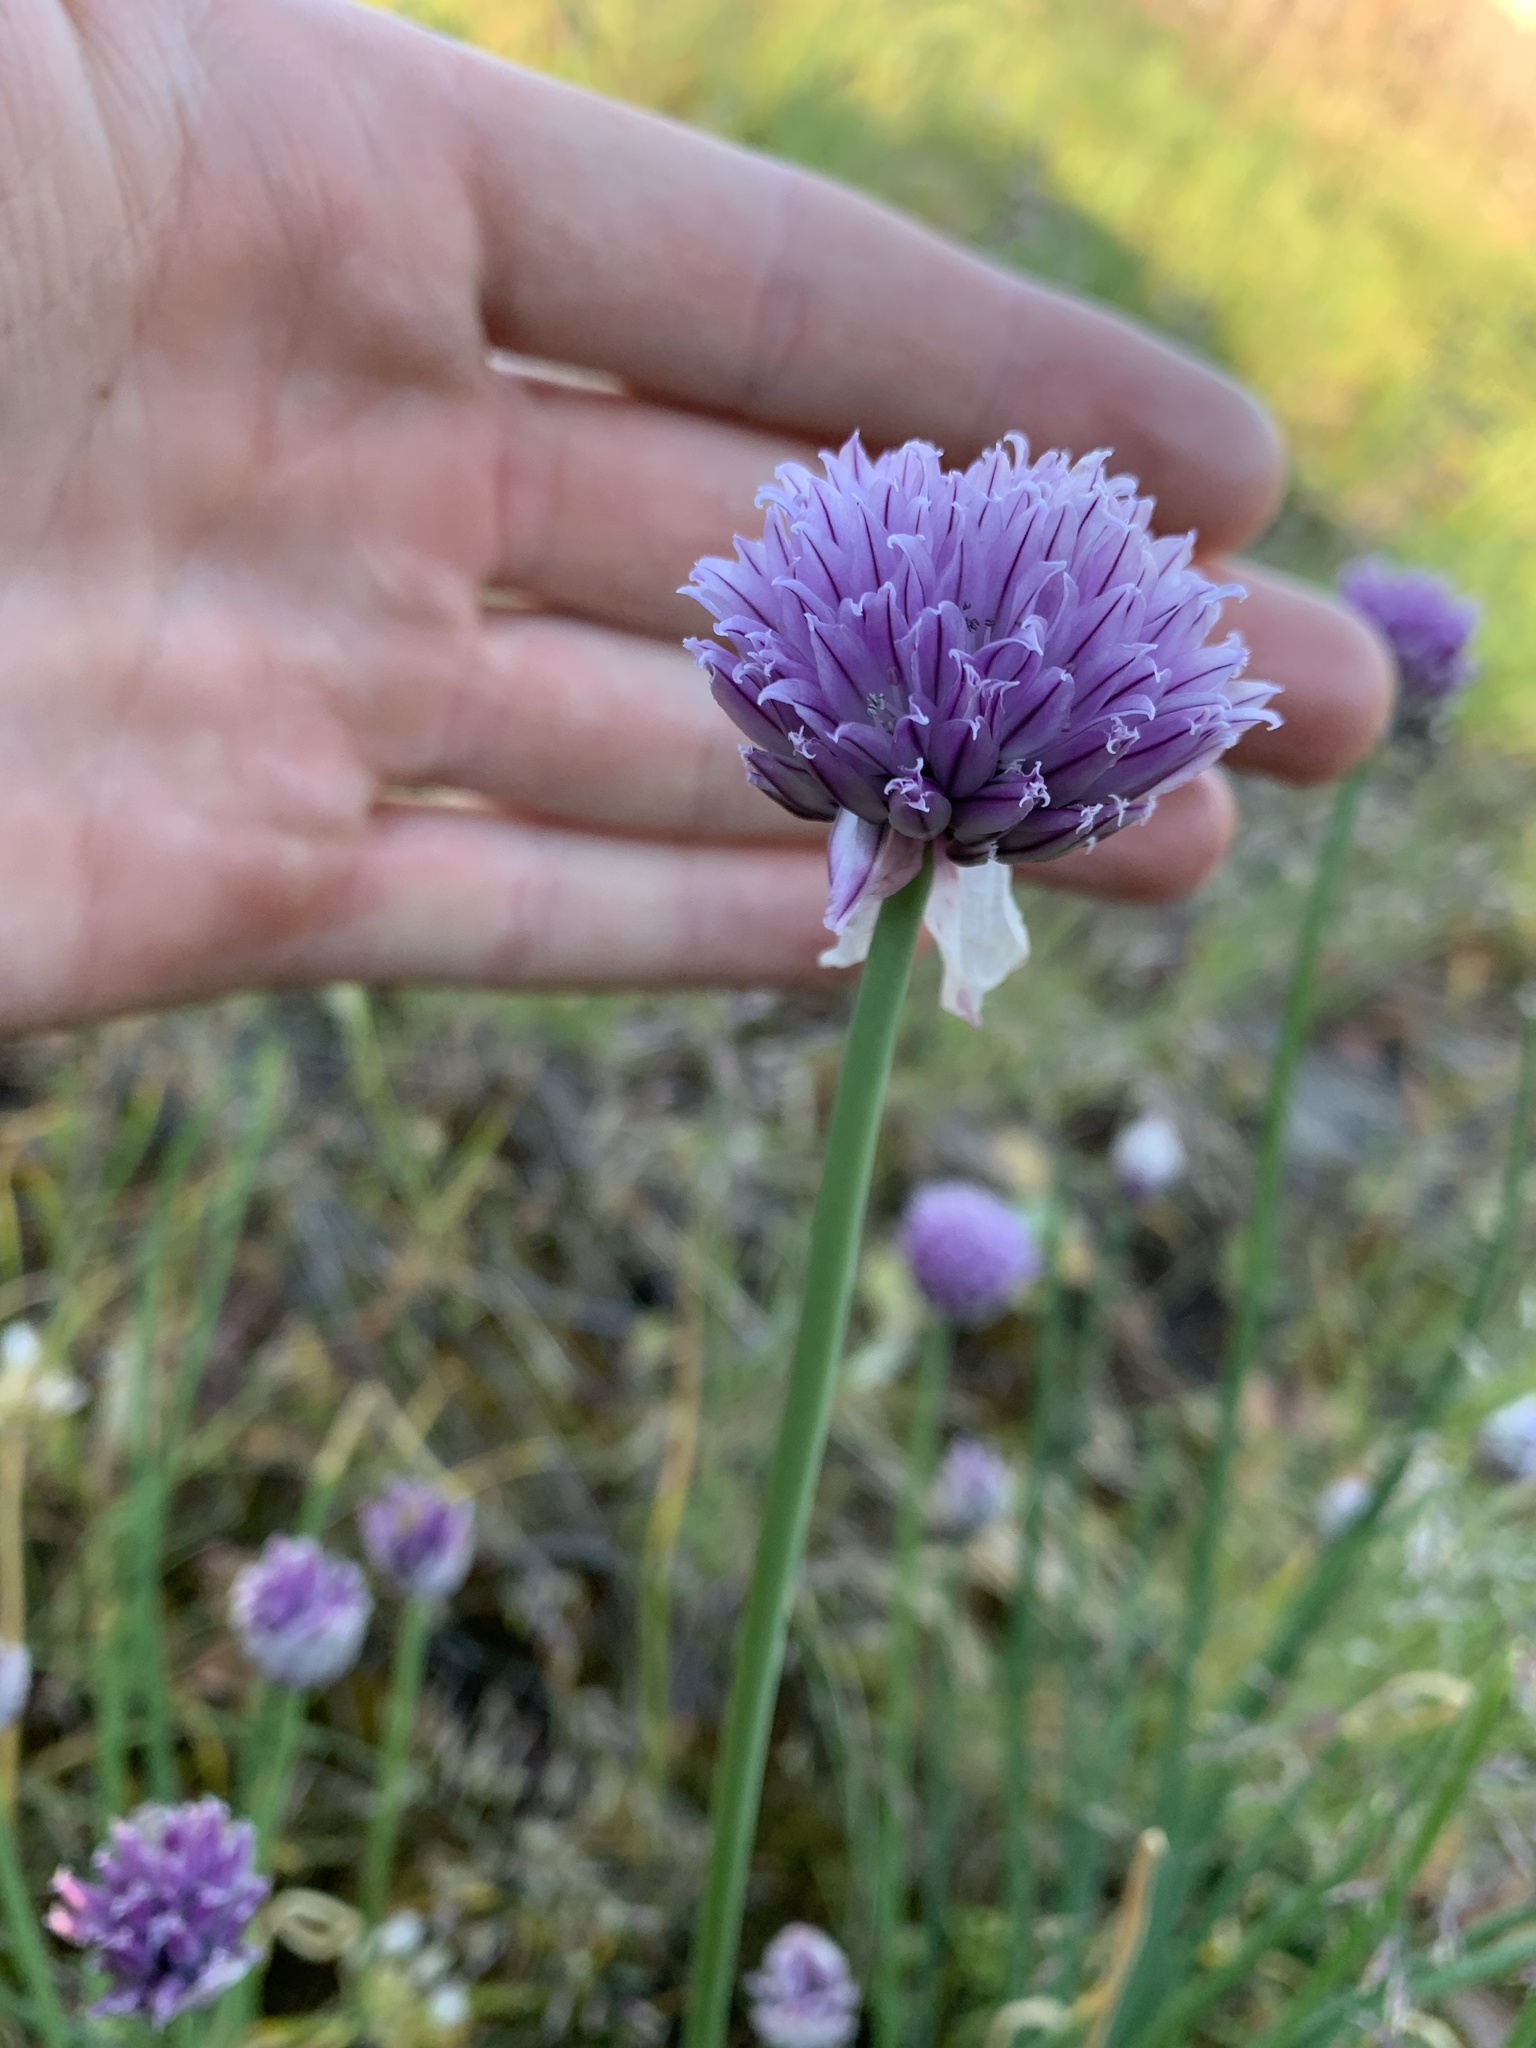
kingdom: Plantae
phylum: Tracheophyta
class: Liliopsida
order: Asparagales
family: Amaryllidaceae
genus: Allium
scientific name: Allium schoenoprasum
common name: Chives
